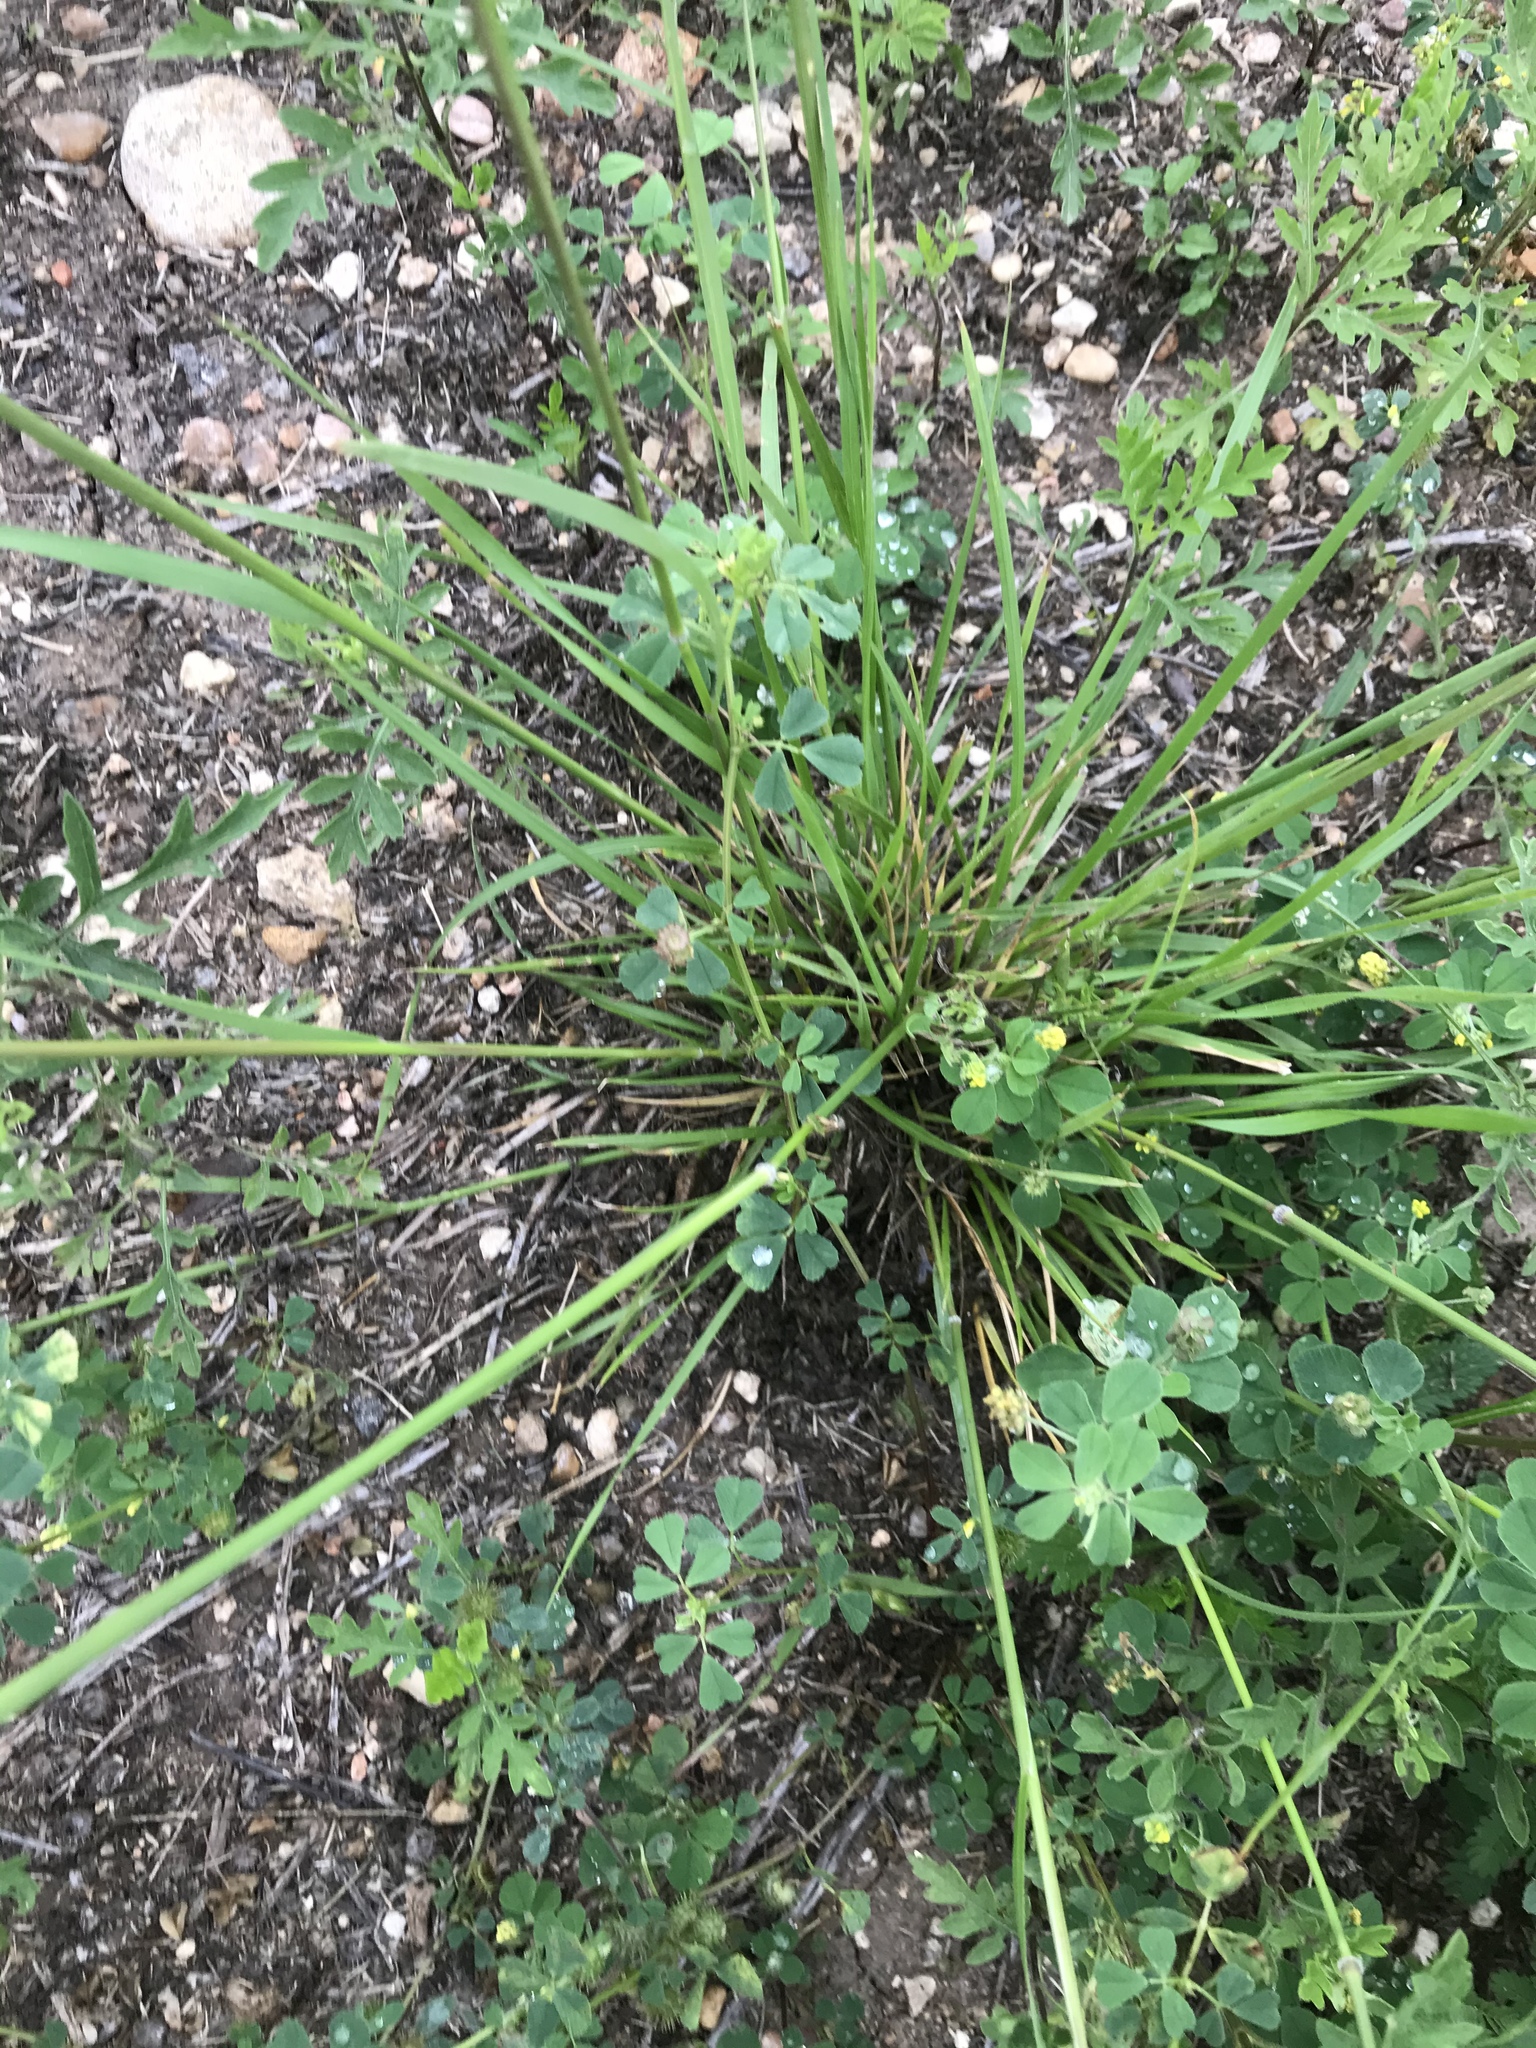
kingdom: Plantae
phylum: Tracheophyta
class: Liliopsida
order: Poales
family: Poaceae
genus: Nassella
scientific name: Nassella leucotricha
